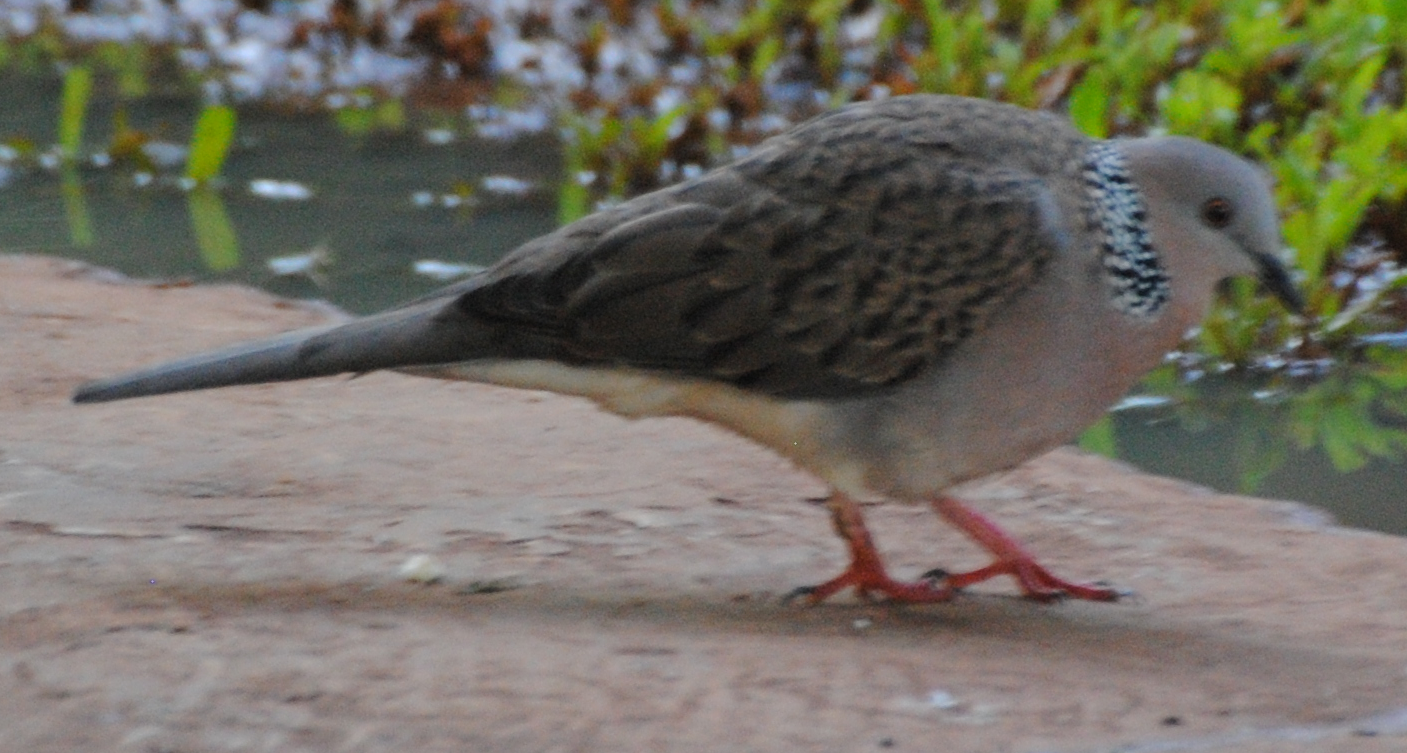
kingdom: Animalia
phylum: Chordata
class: Aves
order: Columbiformes
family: Columbidae
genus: Spilopelia
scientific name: Spilopelia chinensis
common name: Spotted dove
